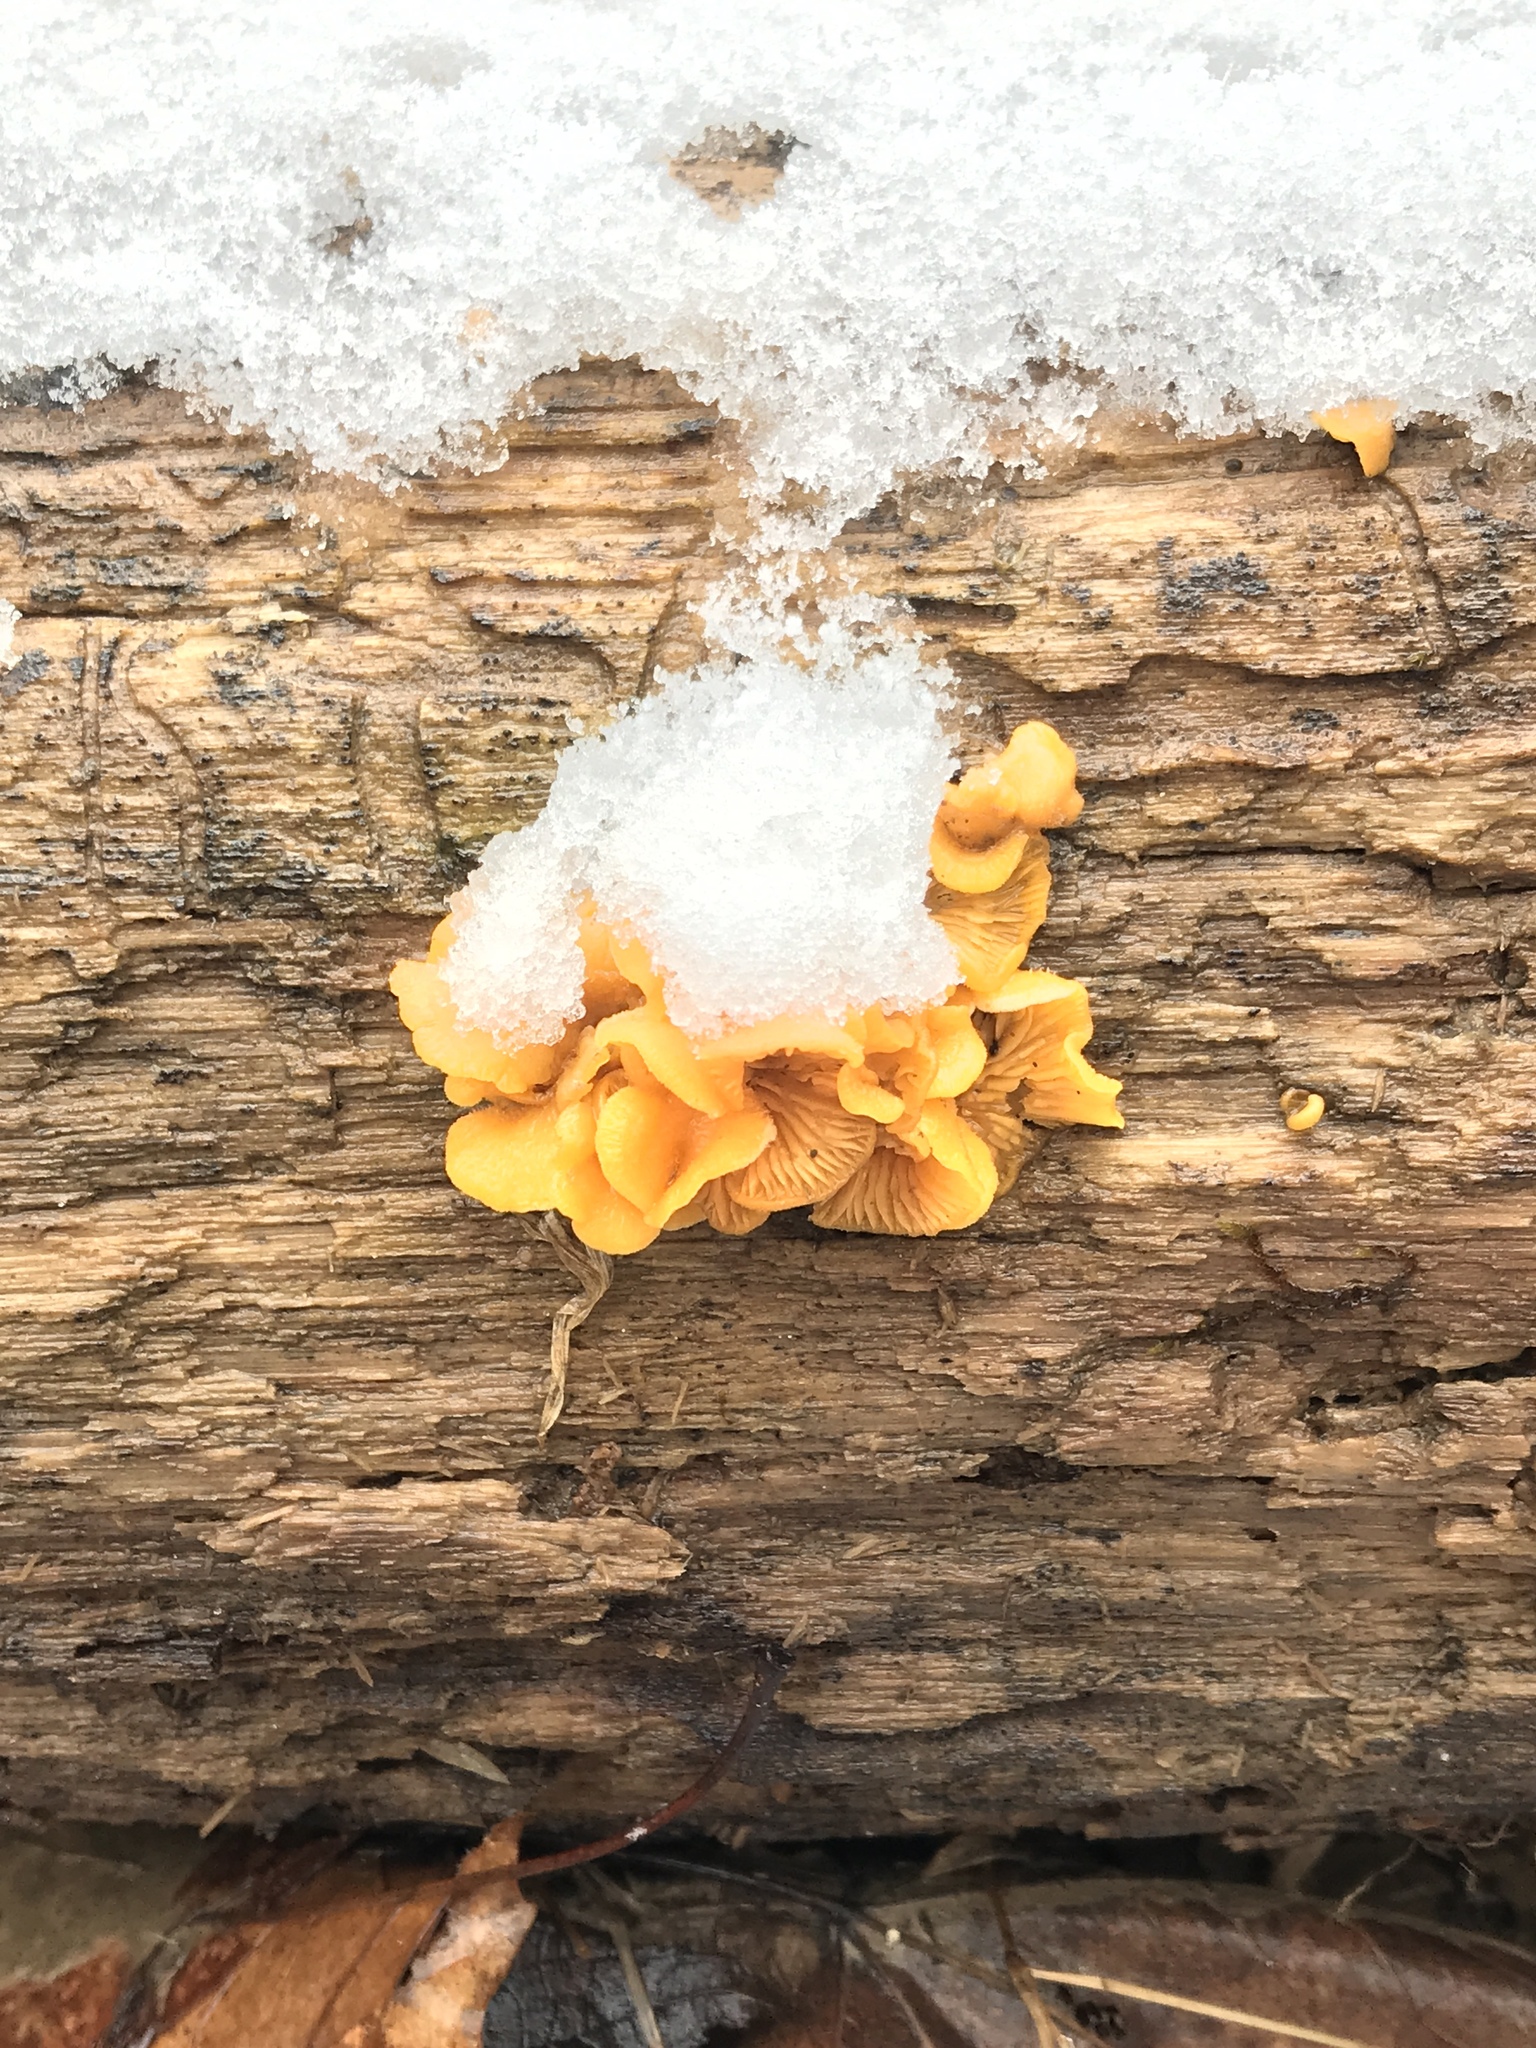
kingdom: Fungi
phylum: Basidiomycota
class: Agaricomycetes
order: Agaricales
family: Phyllotopsidaceae
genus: Phyllotopsis
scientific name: Phyllotopsis nidulans
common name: Orange mock oyster
